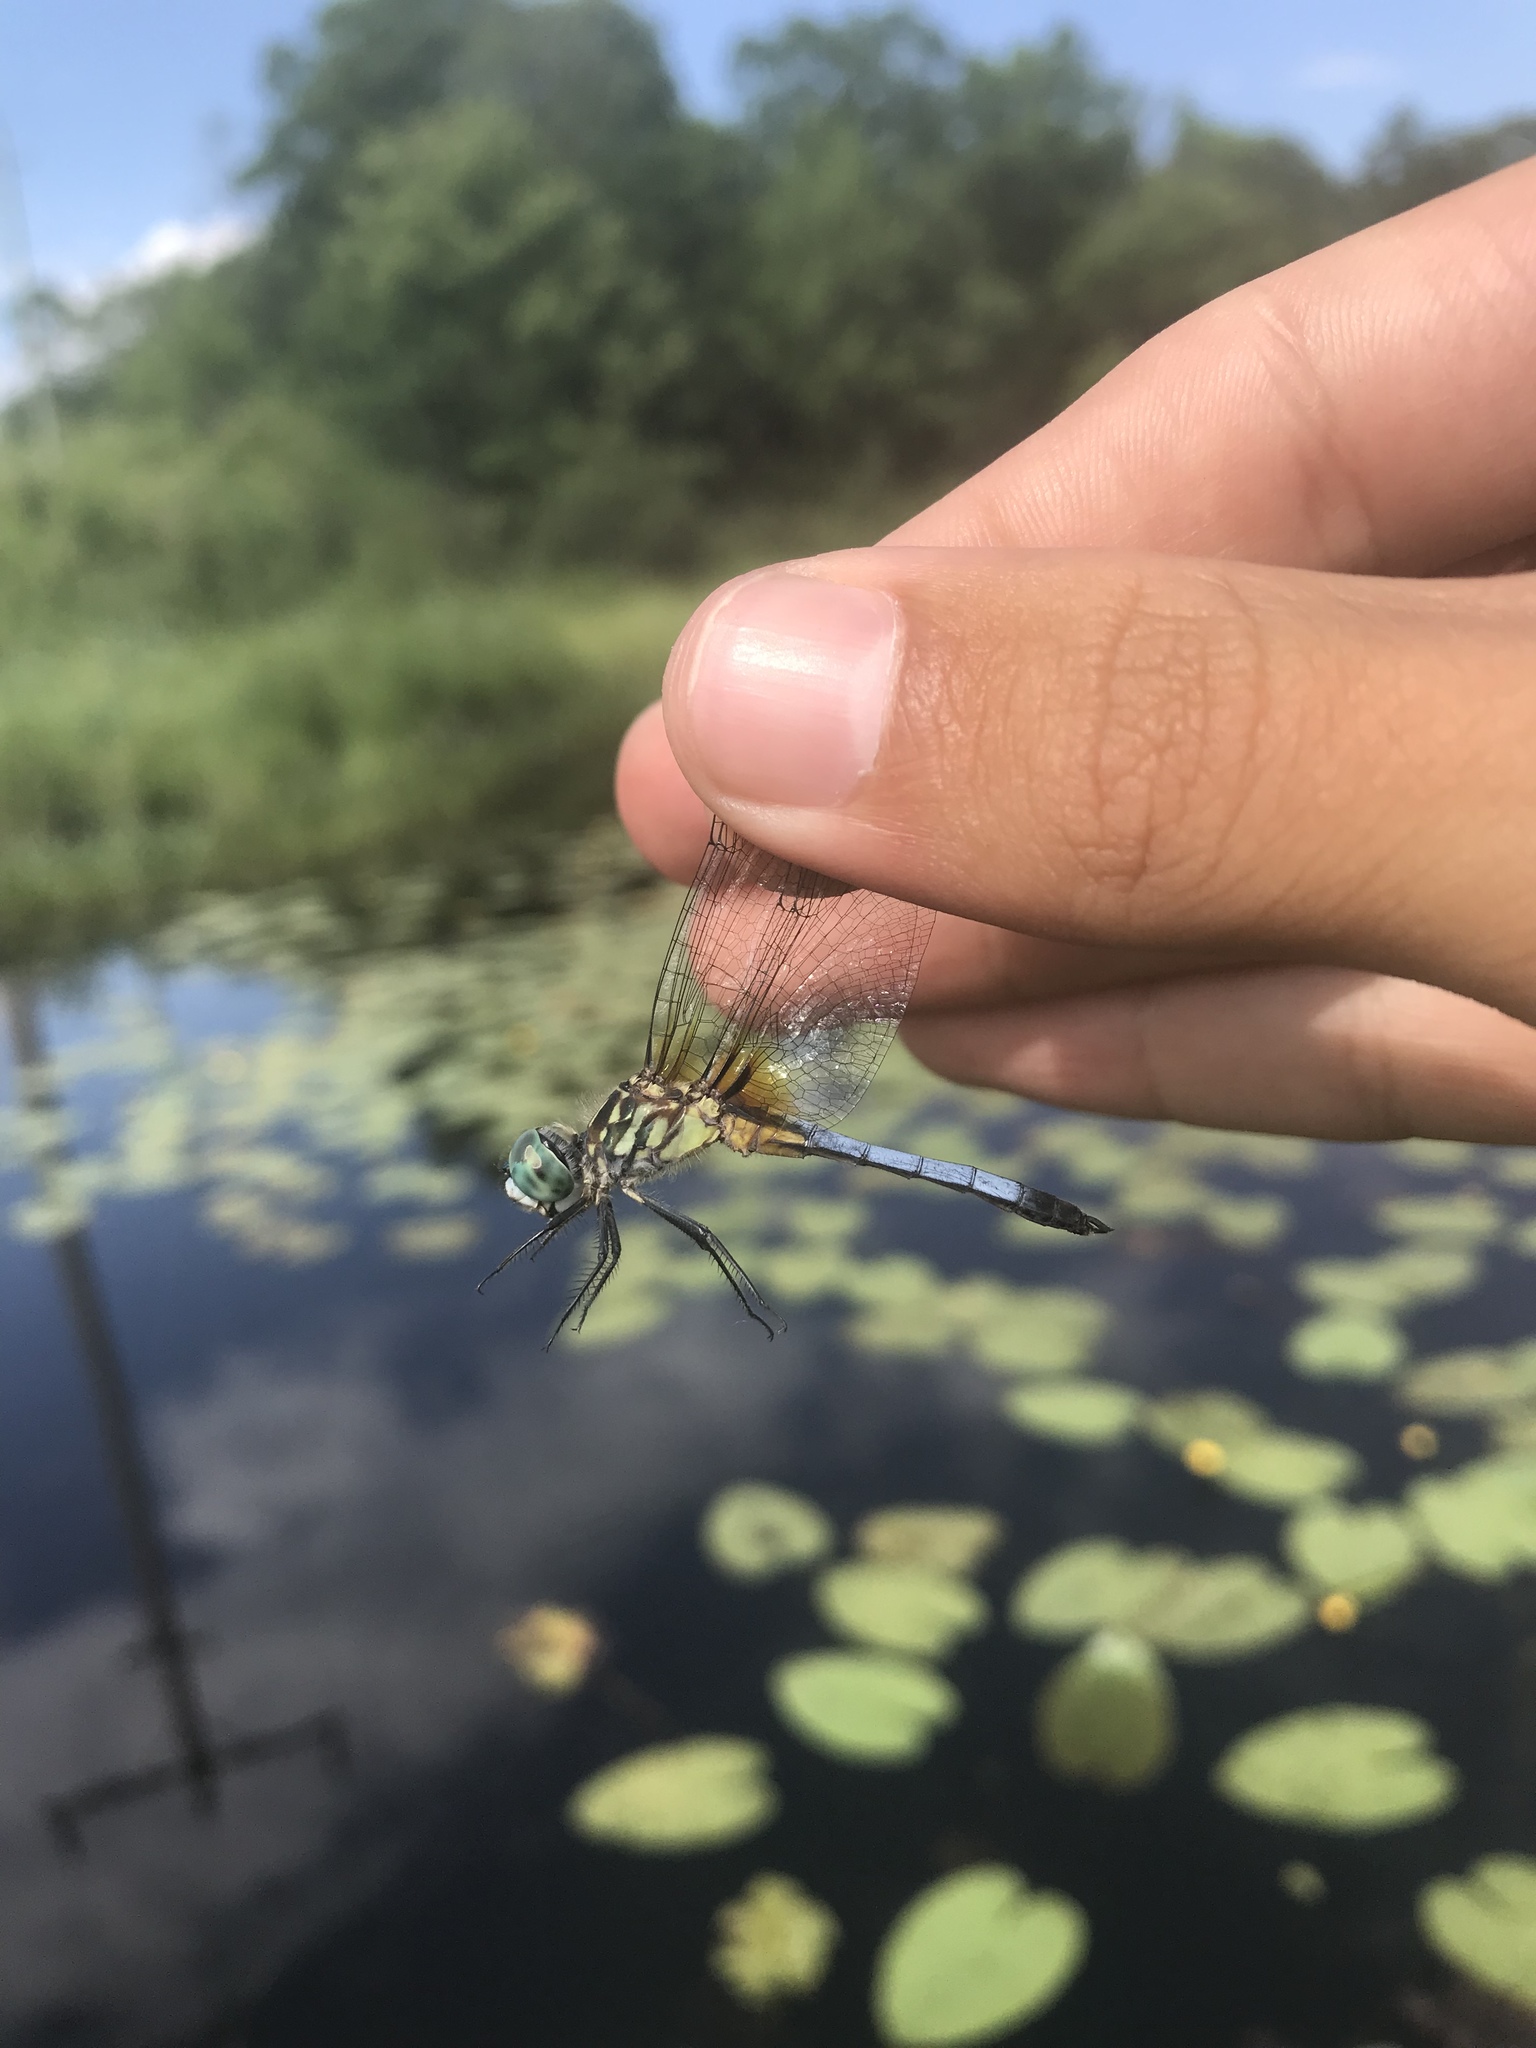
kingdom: Animalia
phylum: Arthropoda
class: Insecta
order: Odonata
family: Libellulidae
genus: Pachydiplax
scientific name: Pachydiplax longipennis
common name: Blue dasher
